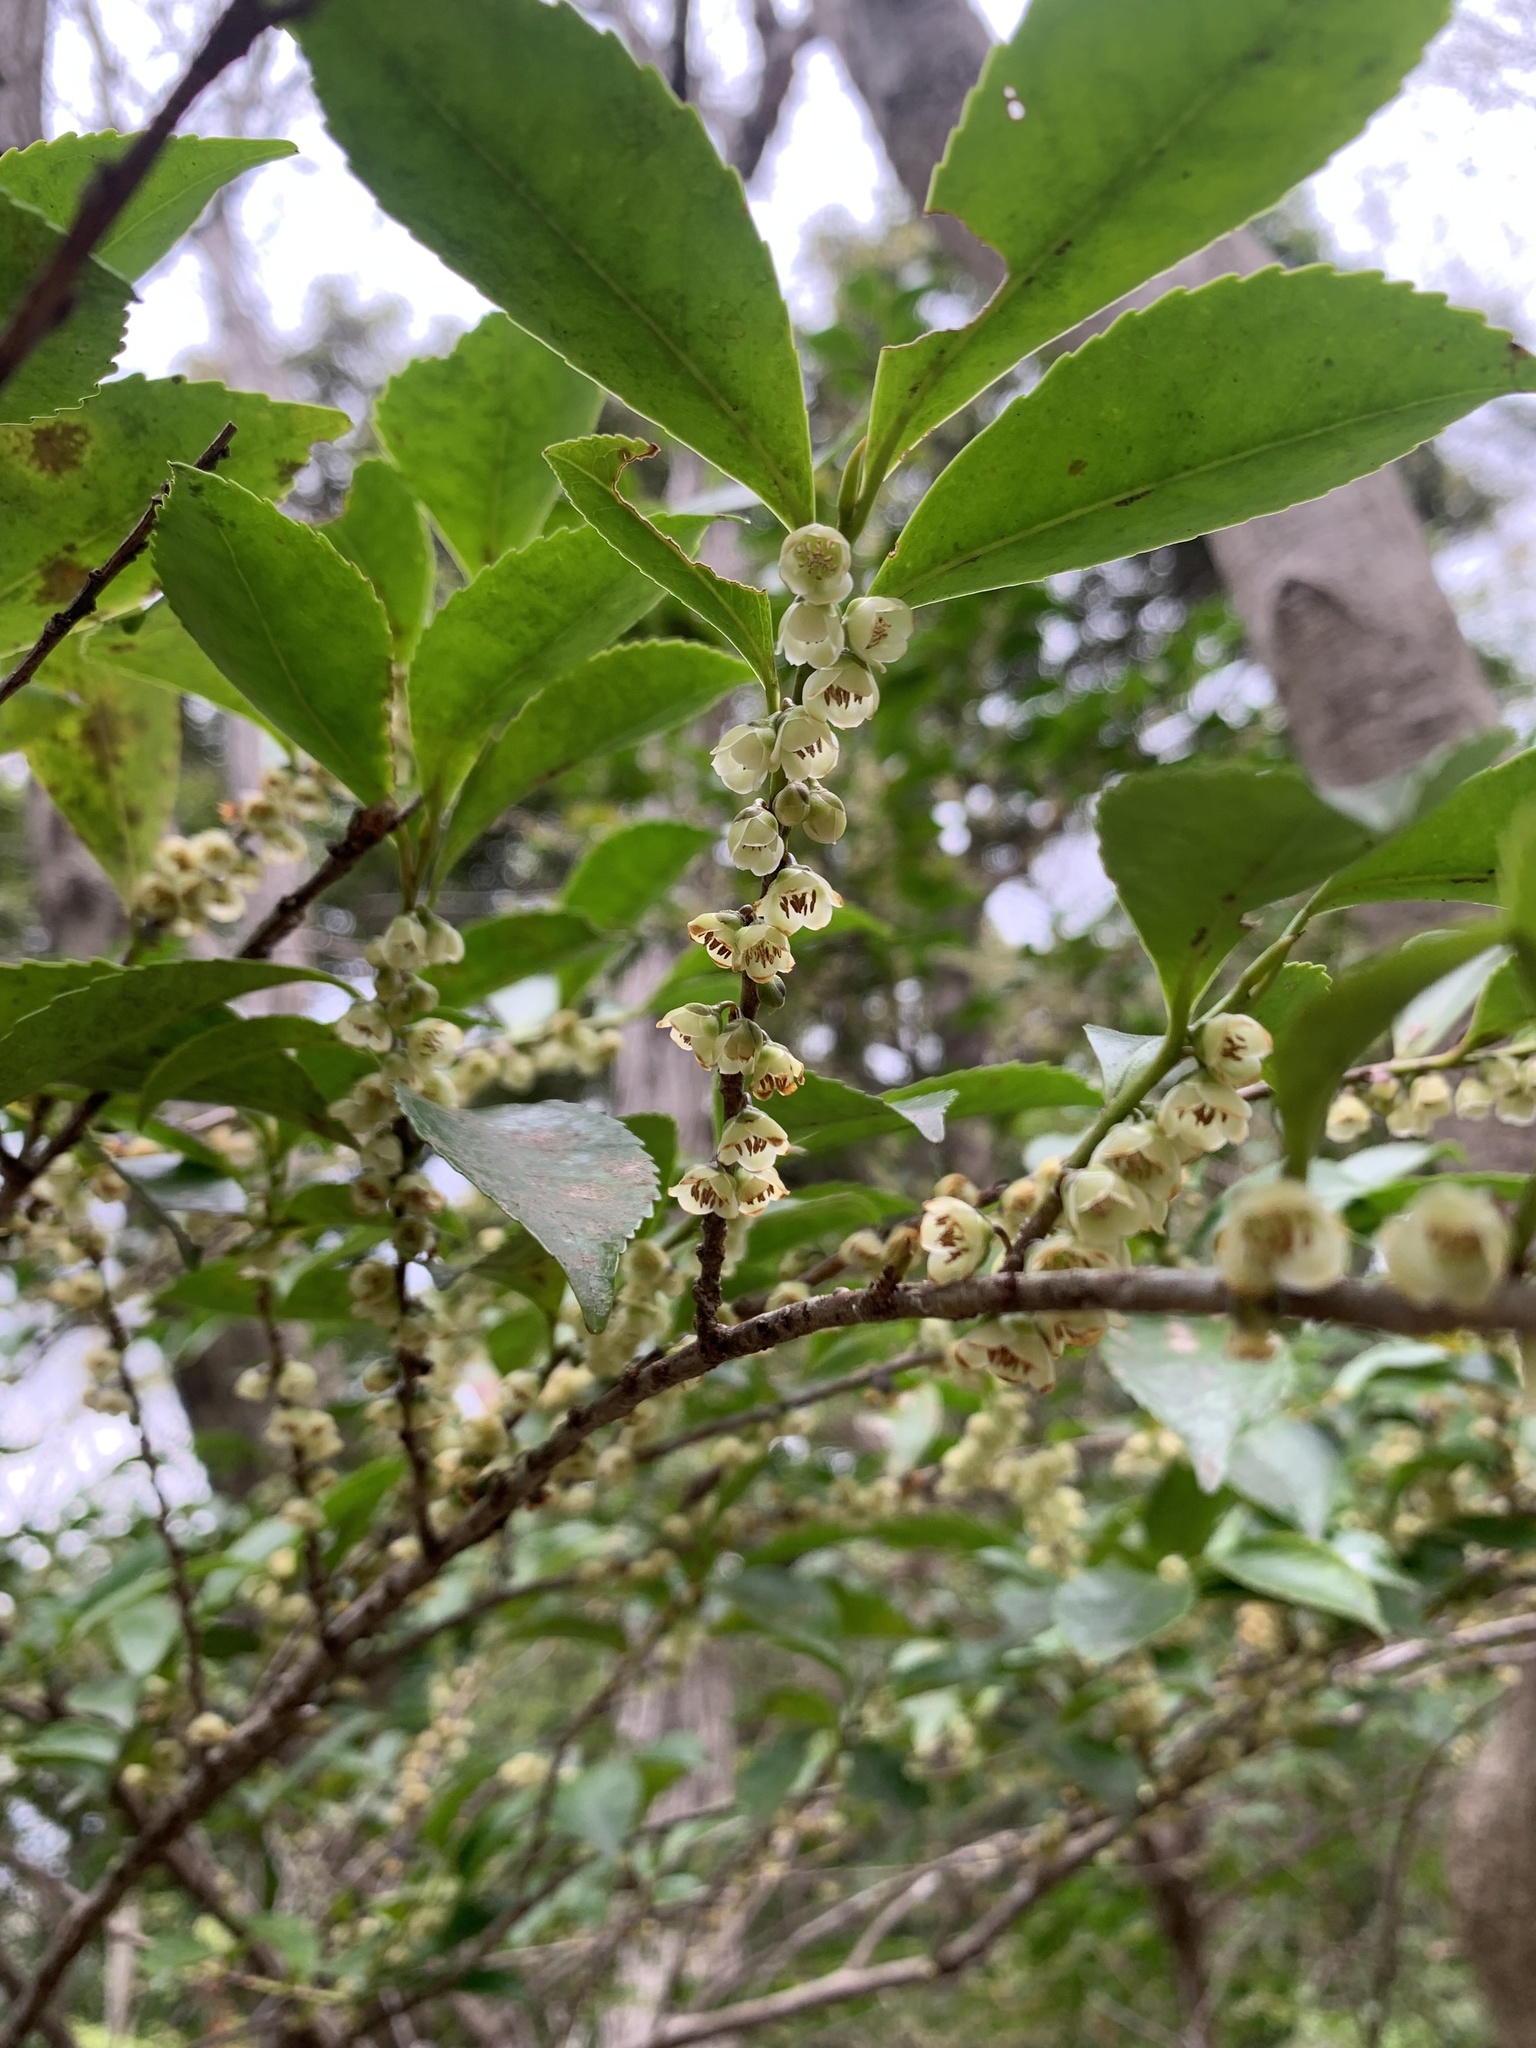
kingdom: Plantae
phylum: Tracheophyta
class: Magnoliopsida
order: Ericales
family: Pentaphylacaceae
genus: Eurya
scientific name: Eurya japonica
